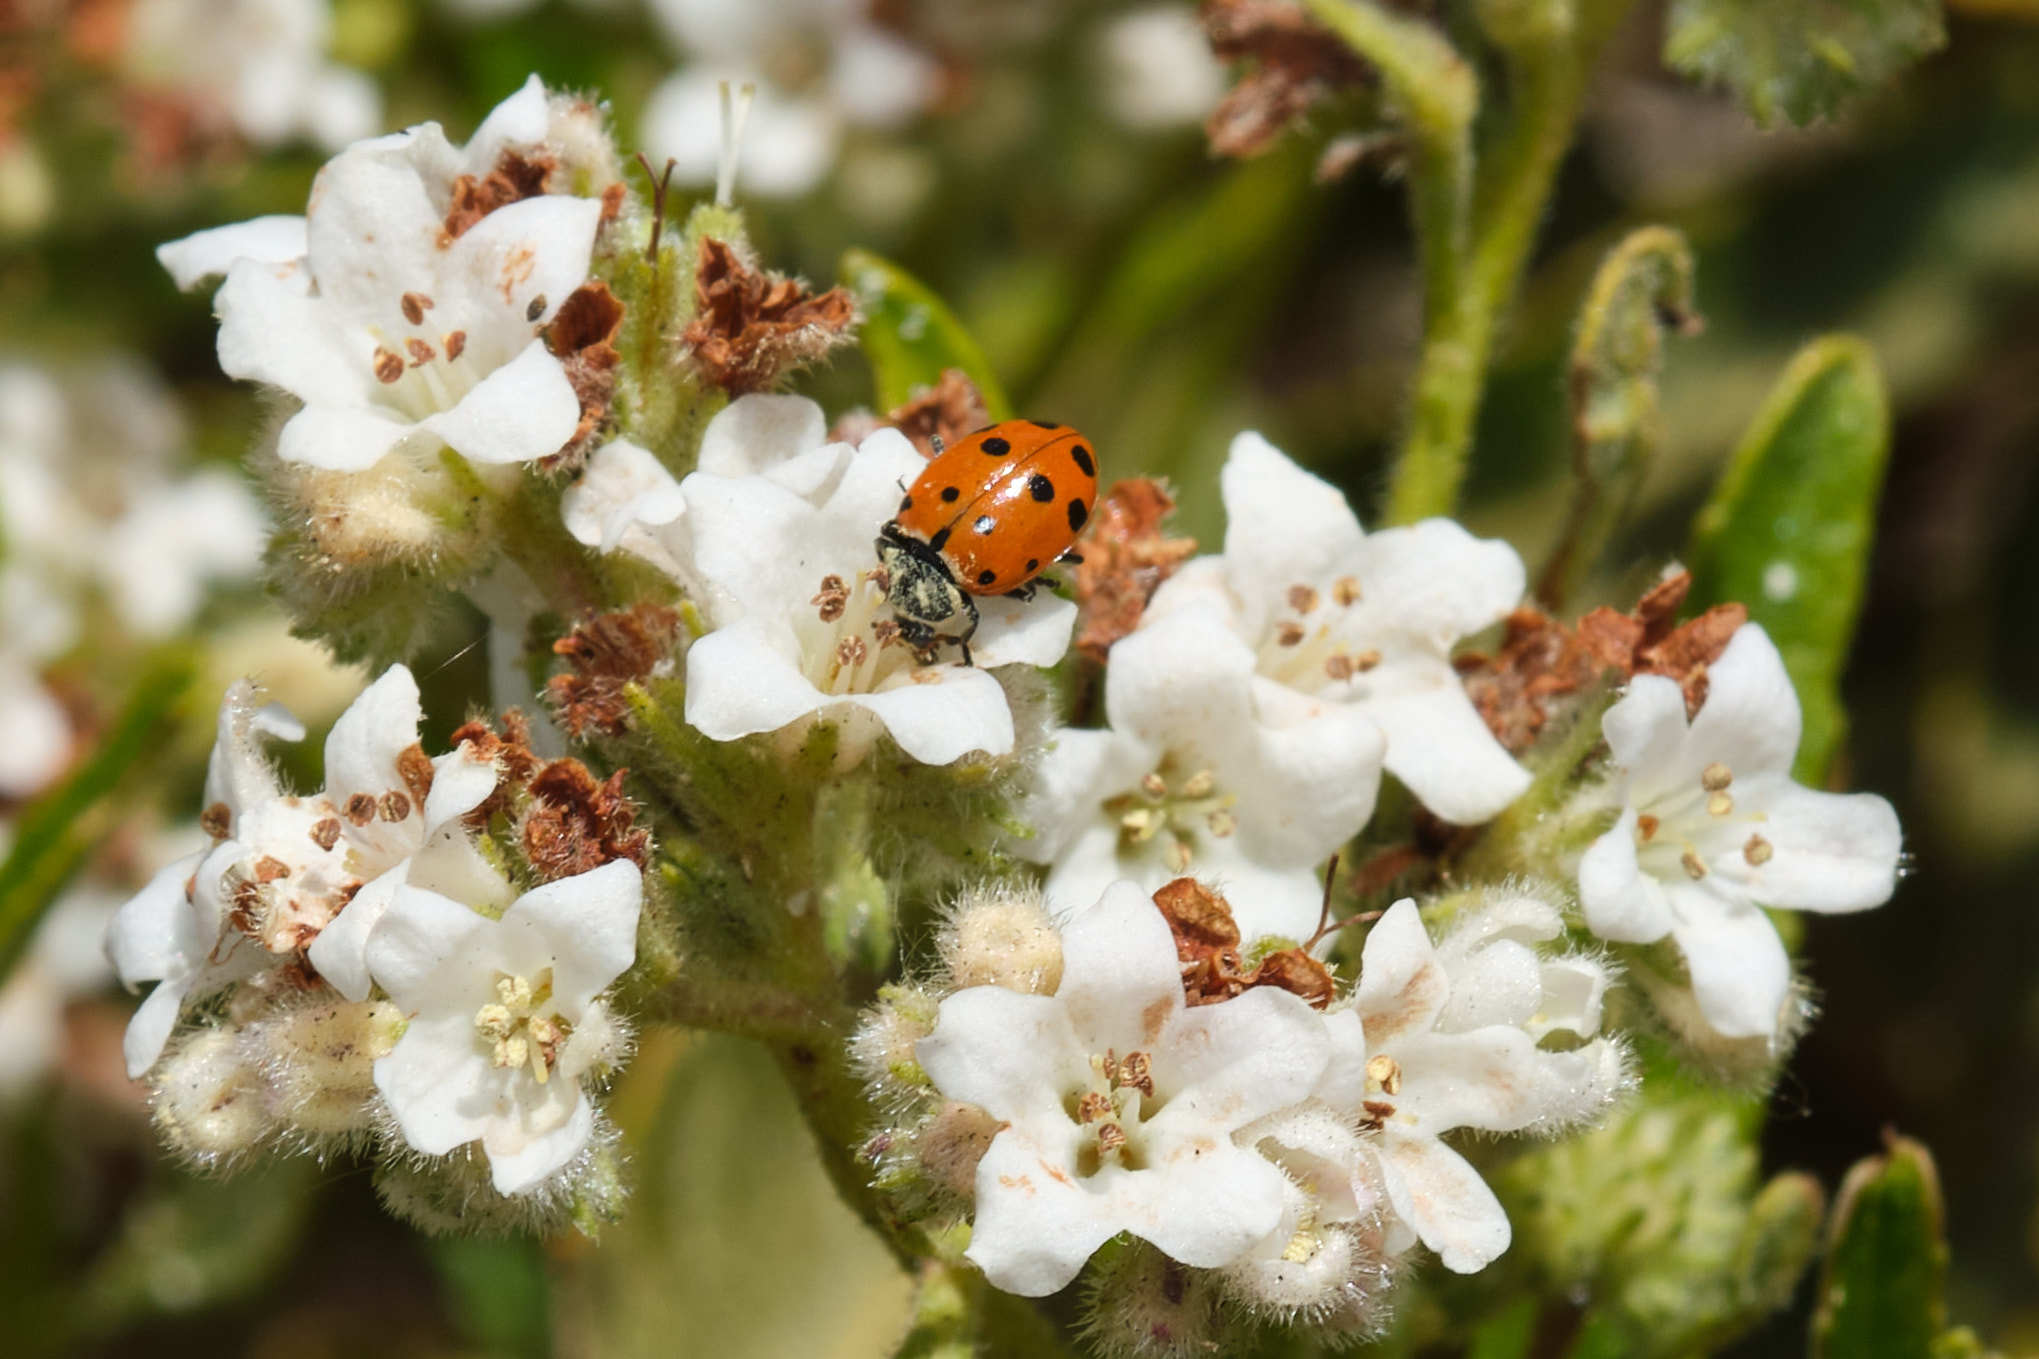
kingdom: Plantae
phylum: Tracheophyta
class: Magnoliopsida
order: Boraginales
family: Namaceae
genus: Eriodictyon
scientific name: Eriodictyon trichocalyx
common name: Hairy yerba-santa
